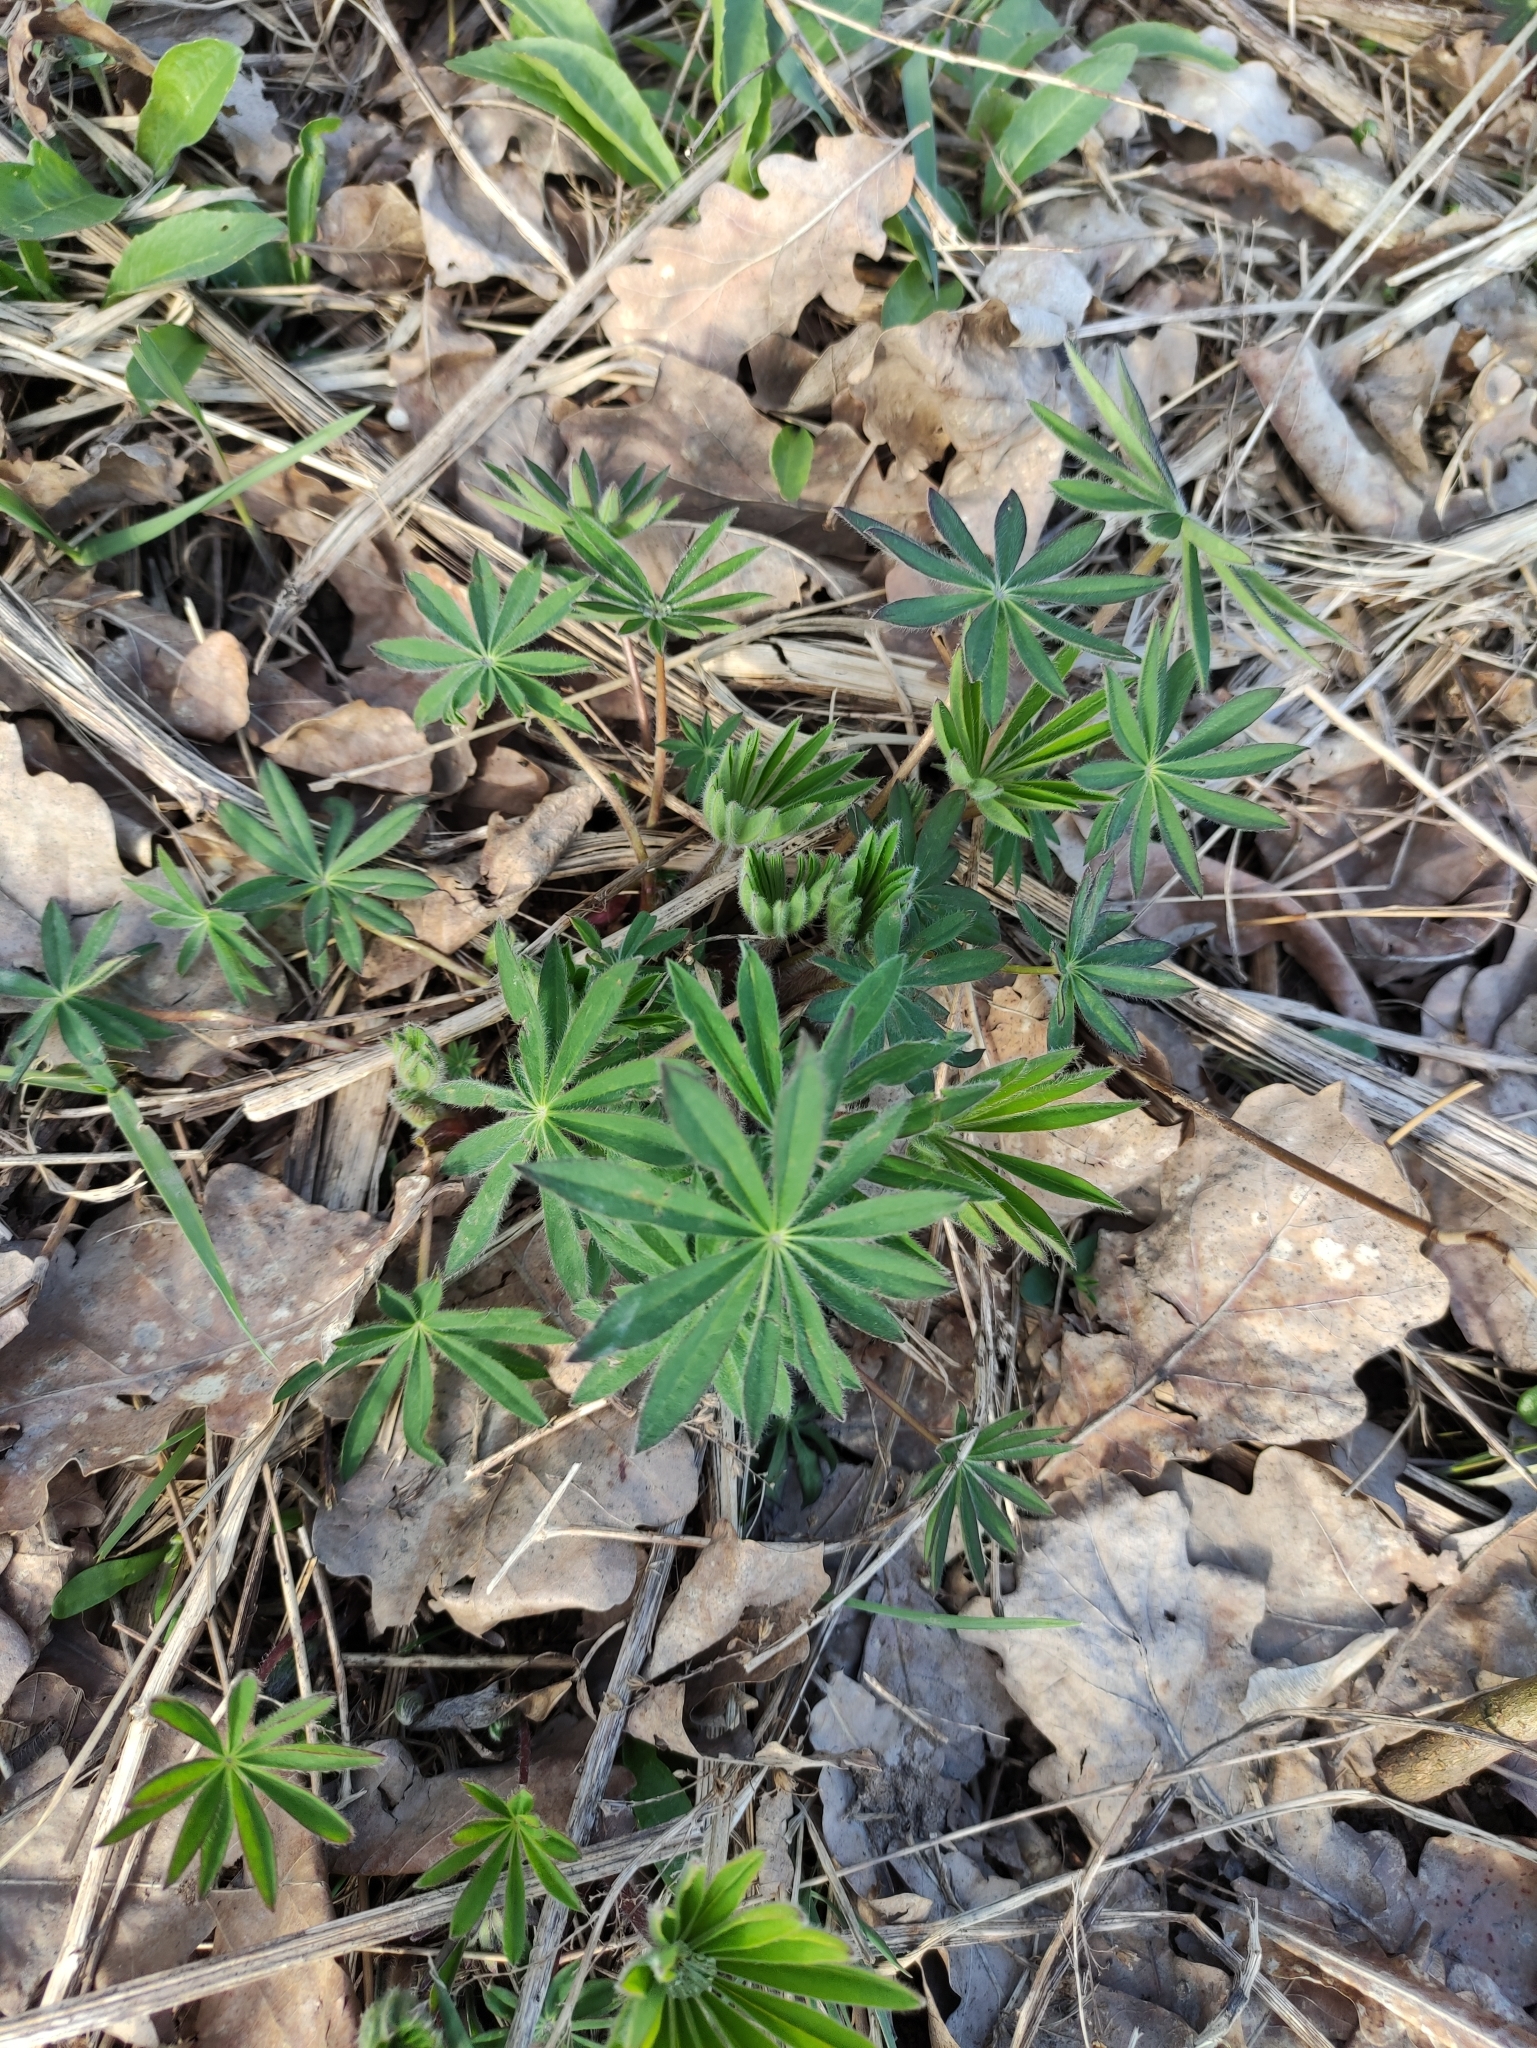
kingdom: Plantae
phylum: Tracheophyta
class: Magnoliopsida
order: Fabales
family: Fabaceae
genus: Lupinus
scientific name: Lupinus polyphyllus
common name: Garden lupin
